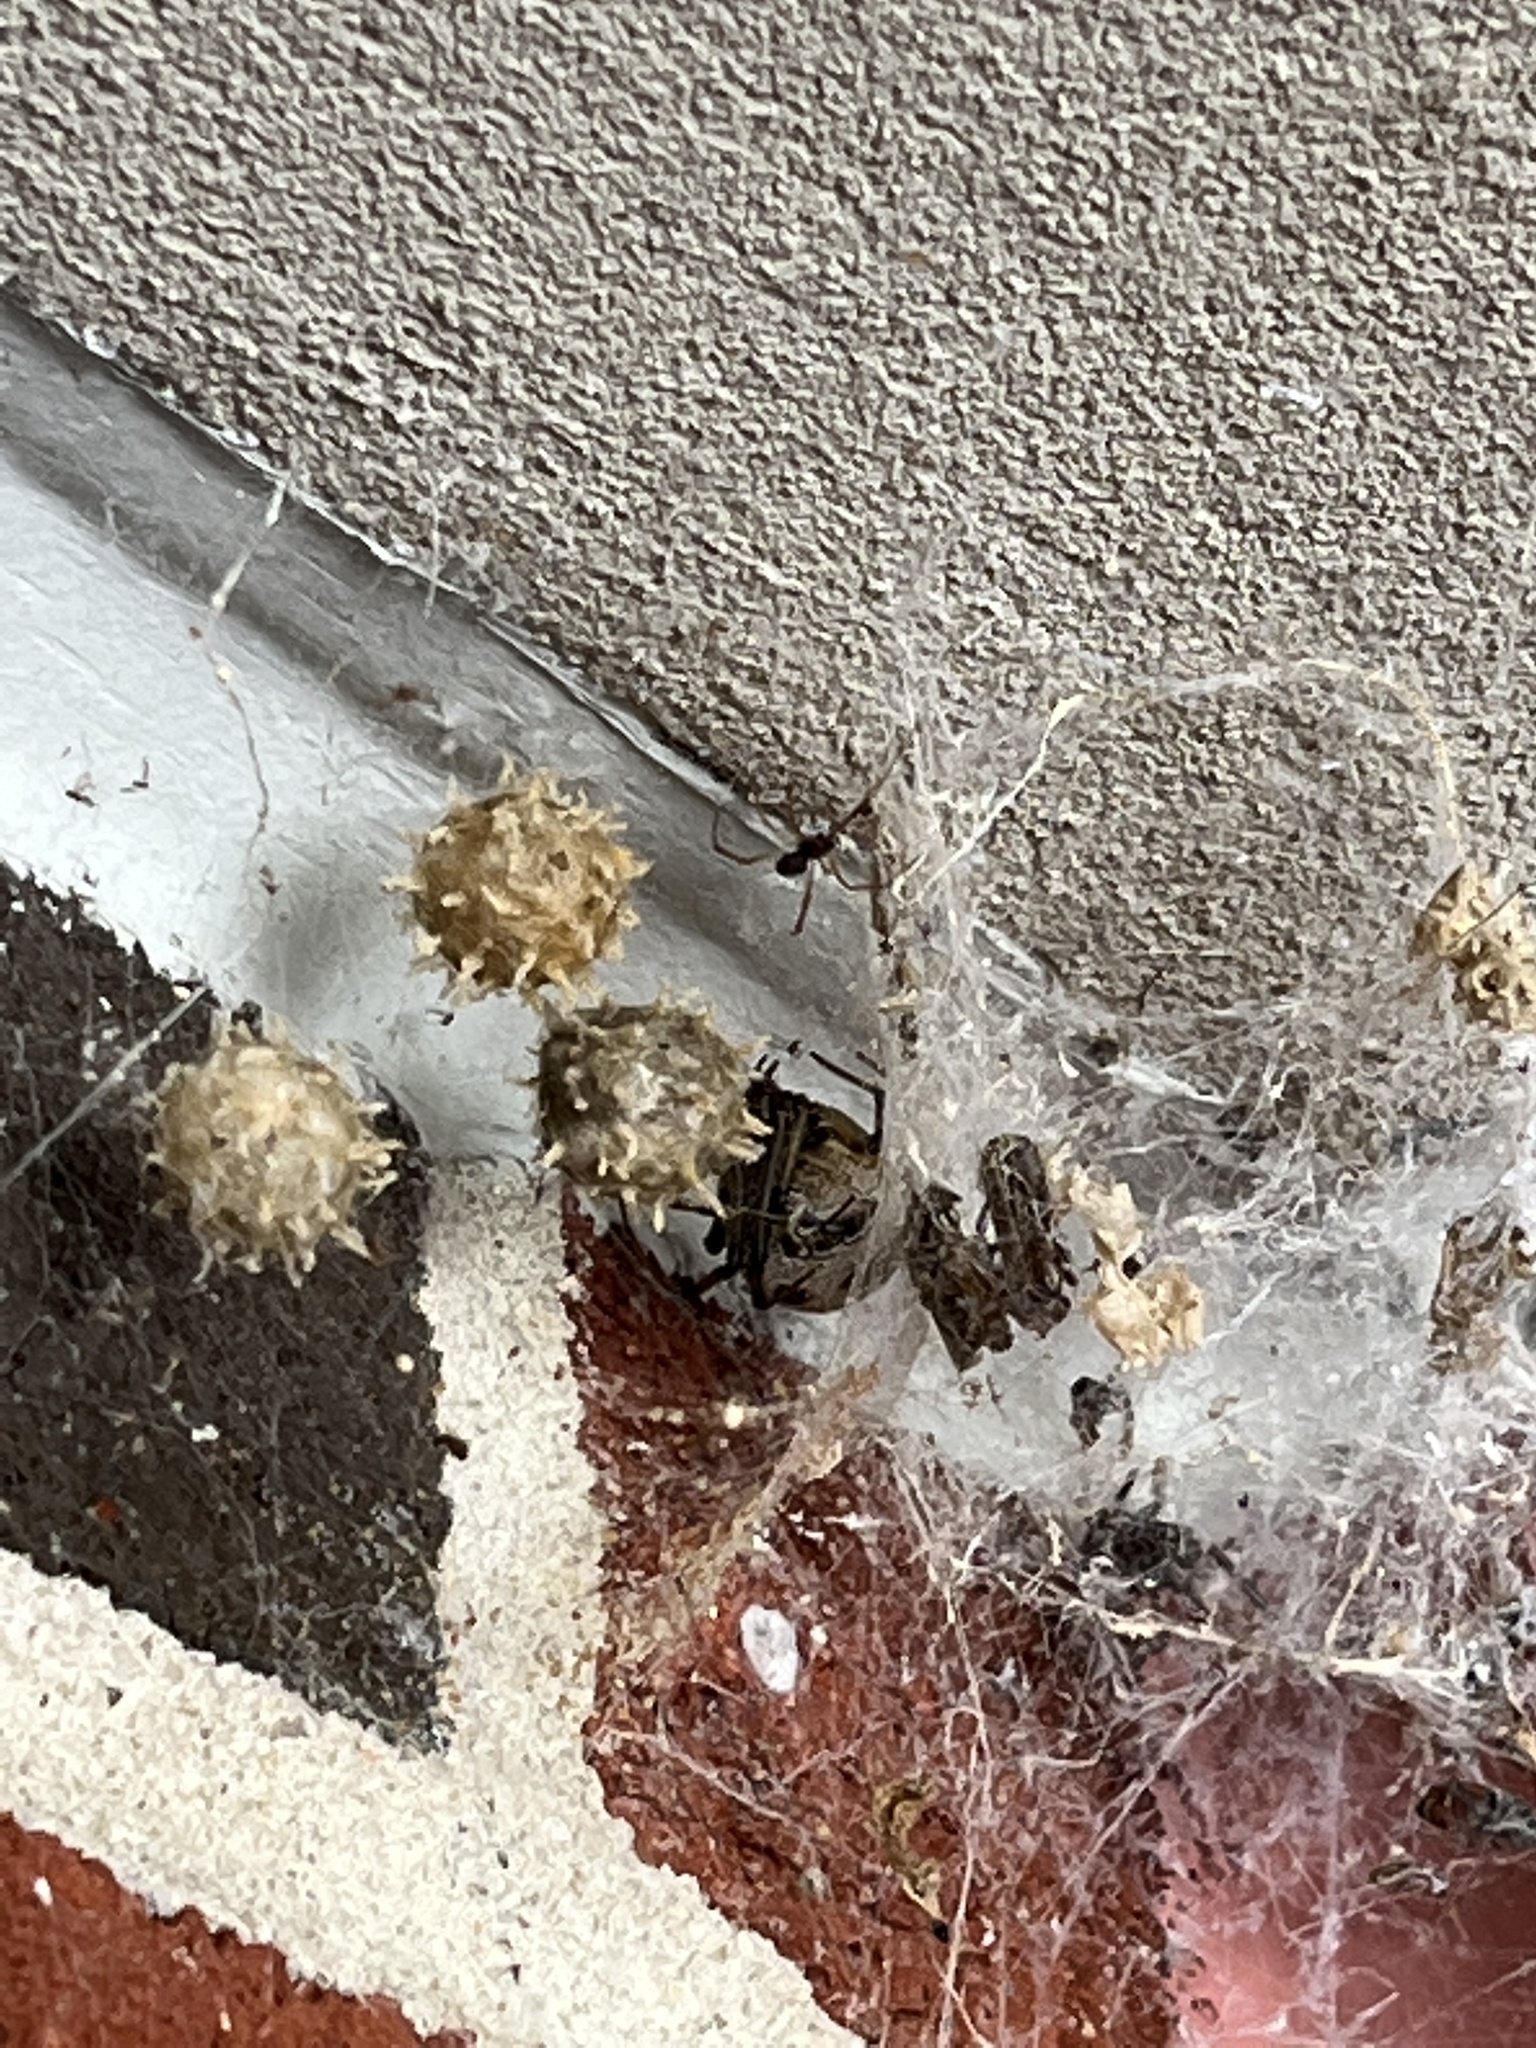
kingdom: Animalia
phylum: Arthropoda
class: Arachnida
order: Araneae
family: Theridiidae
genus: Latrodectus
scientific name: Latrodectus geometricus
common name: Brown widow spider
